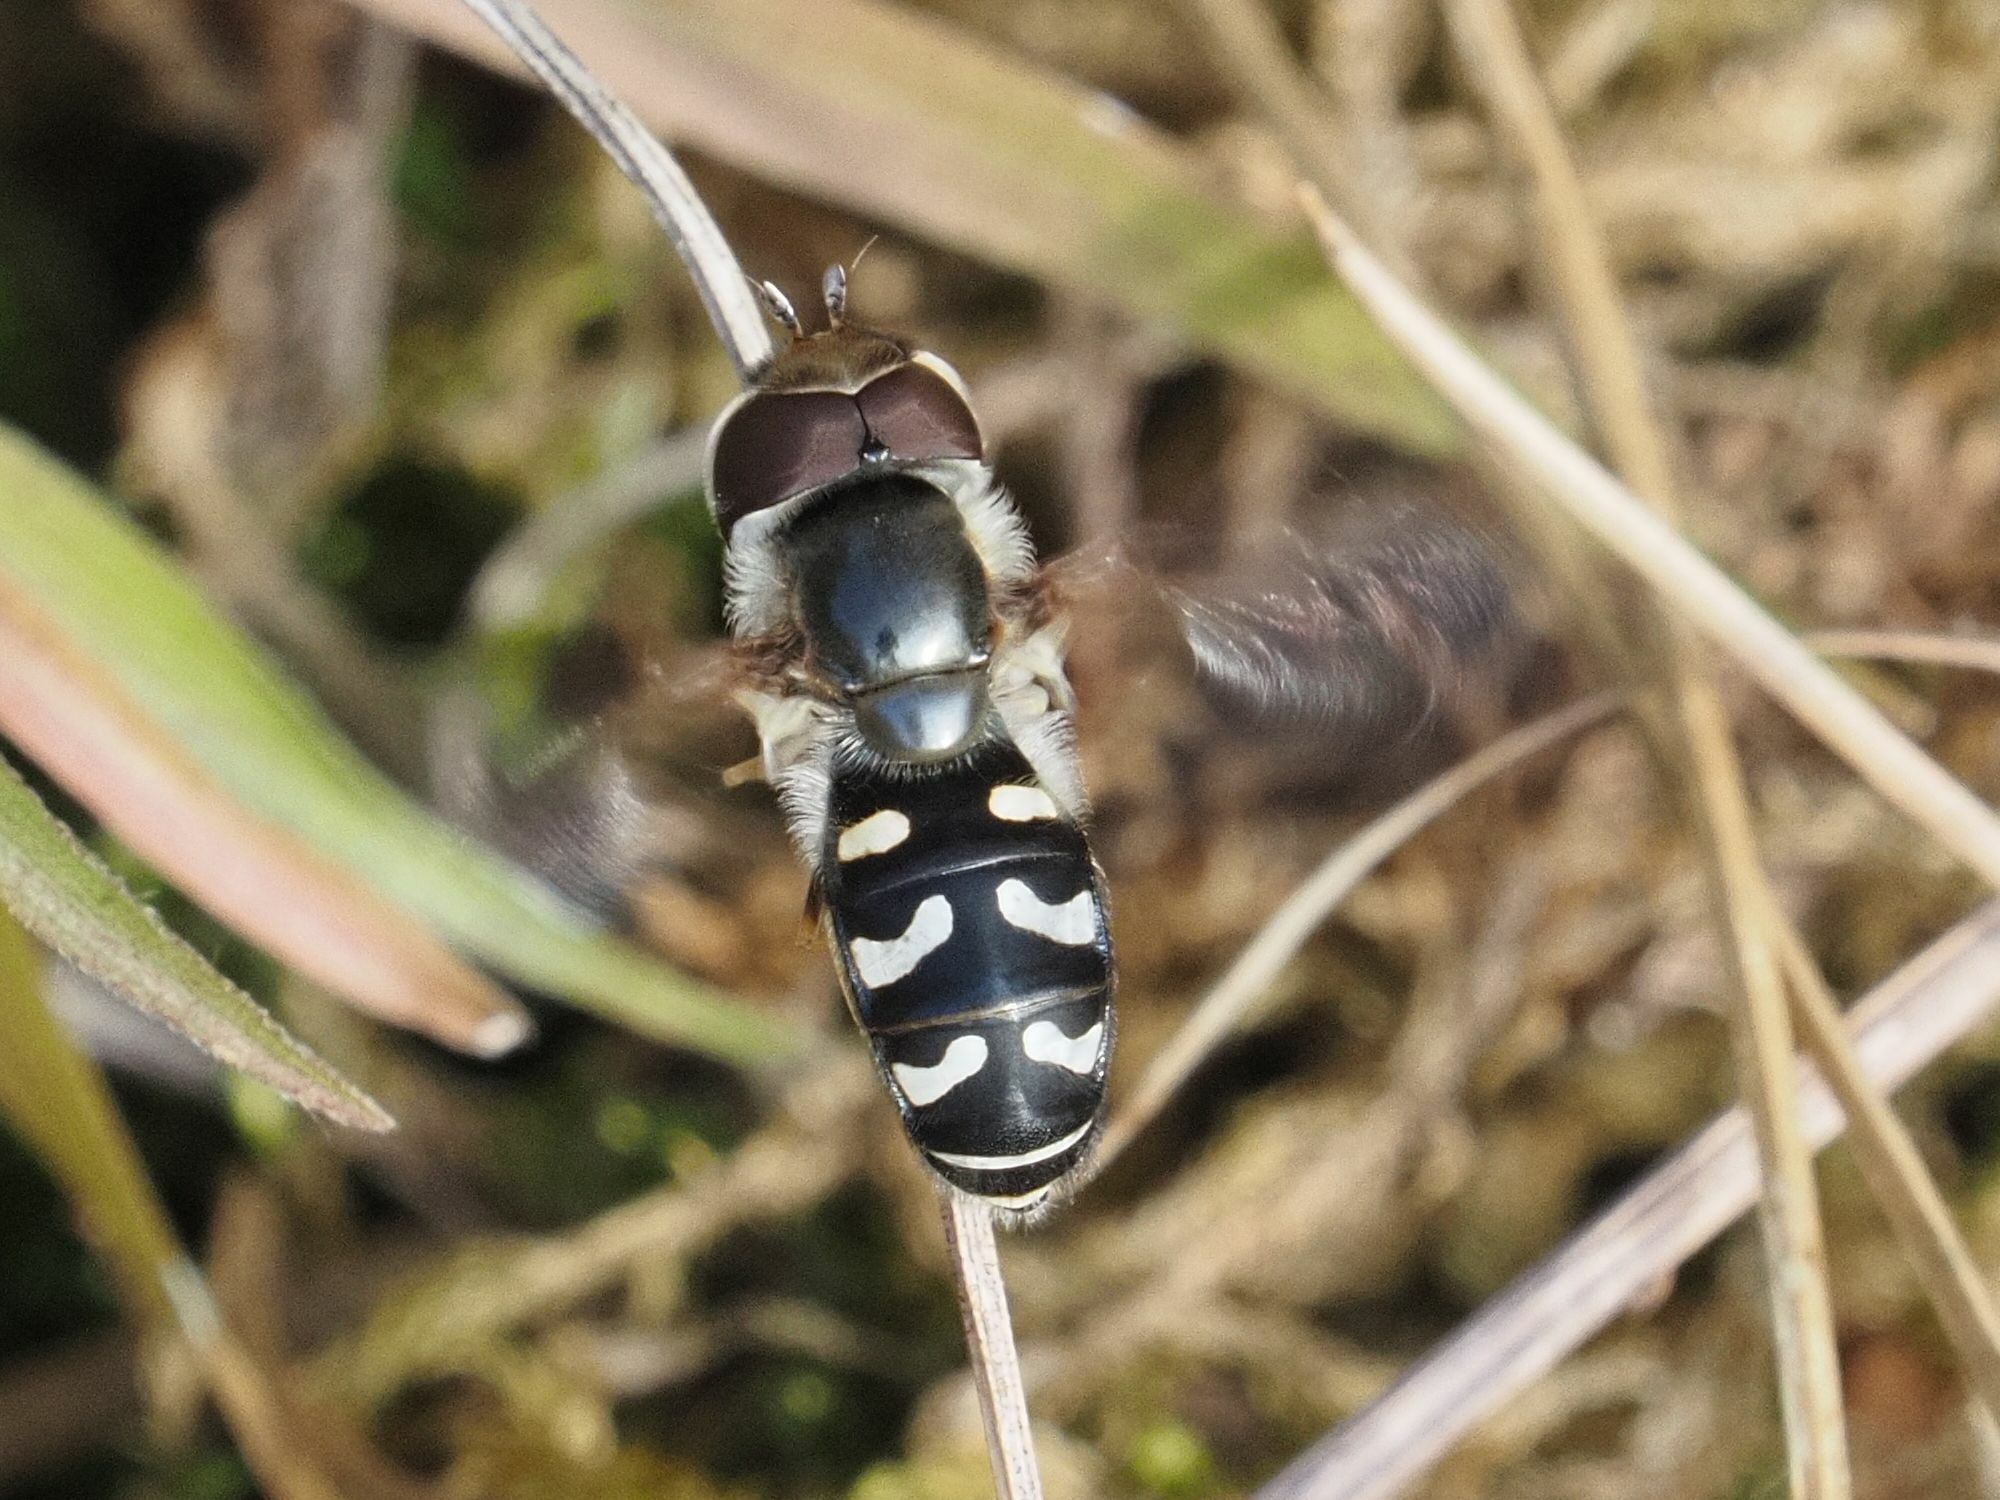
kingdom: Animalia
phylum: Arthropoda
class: Insecta
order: Diptera
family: Syrphidae
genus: Scaeva
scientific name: Scaeva pyrastri
